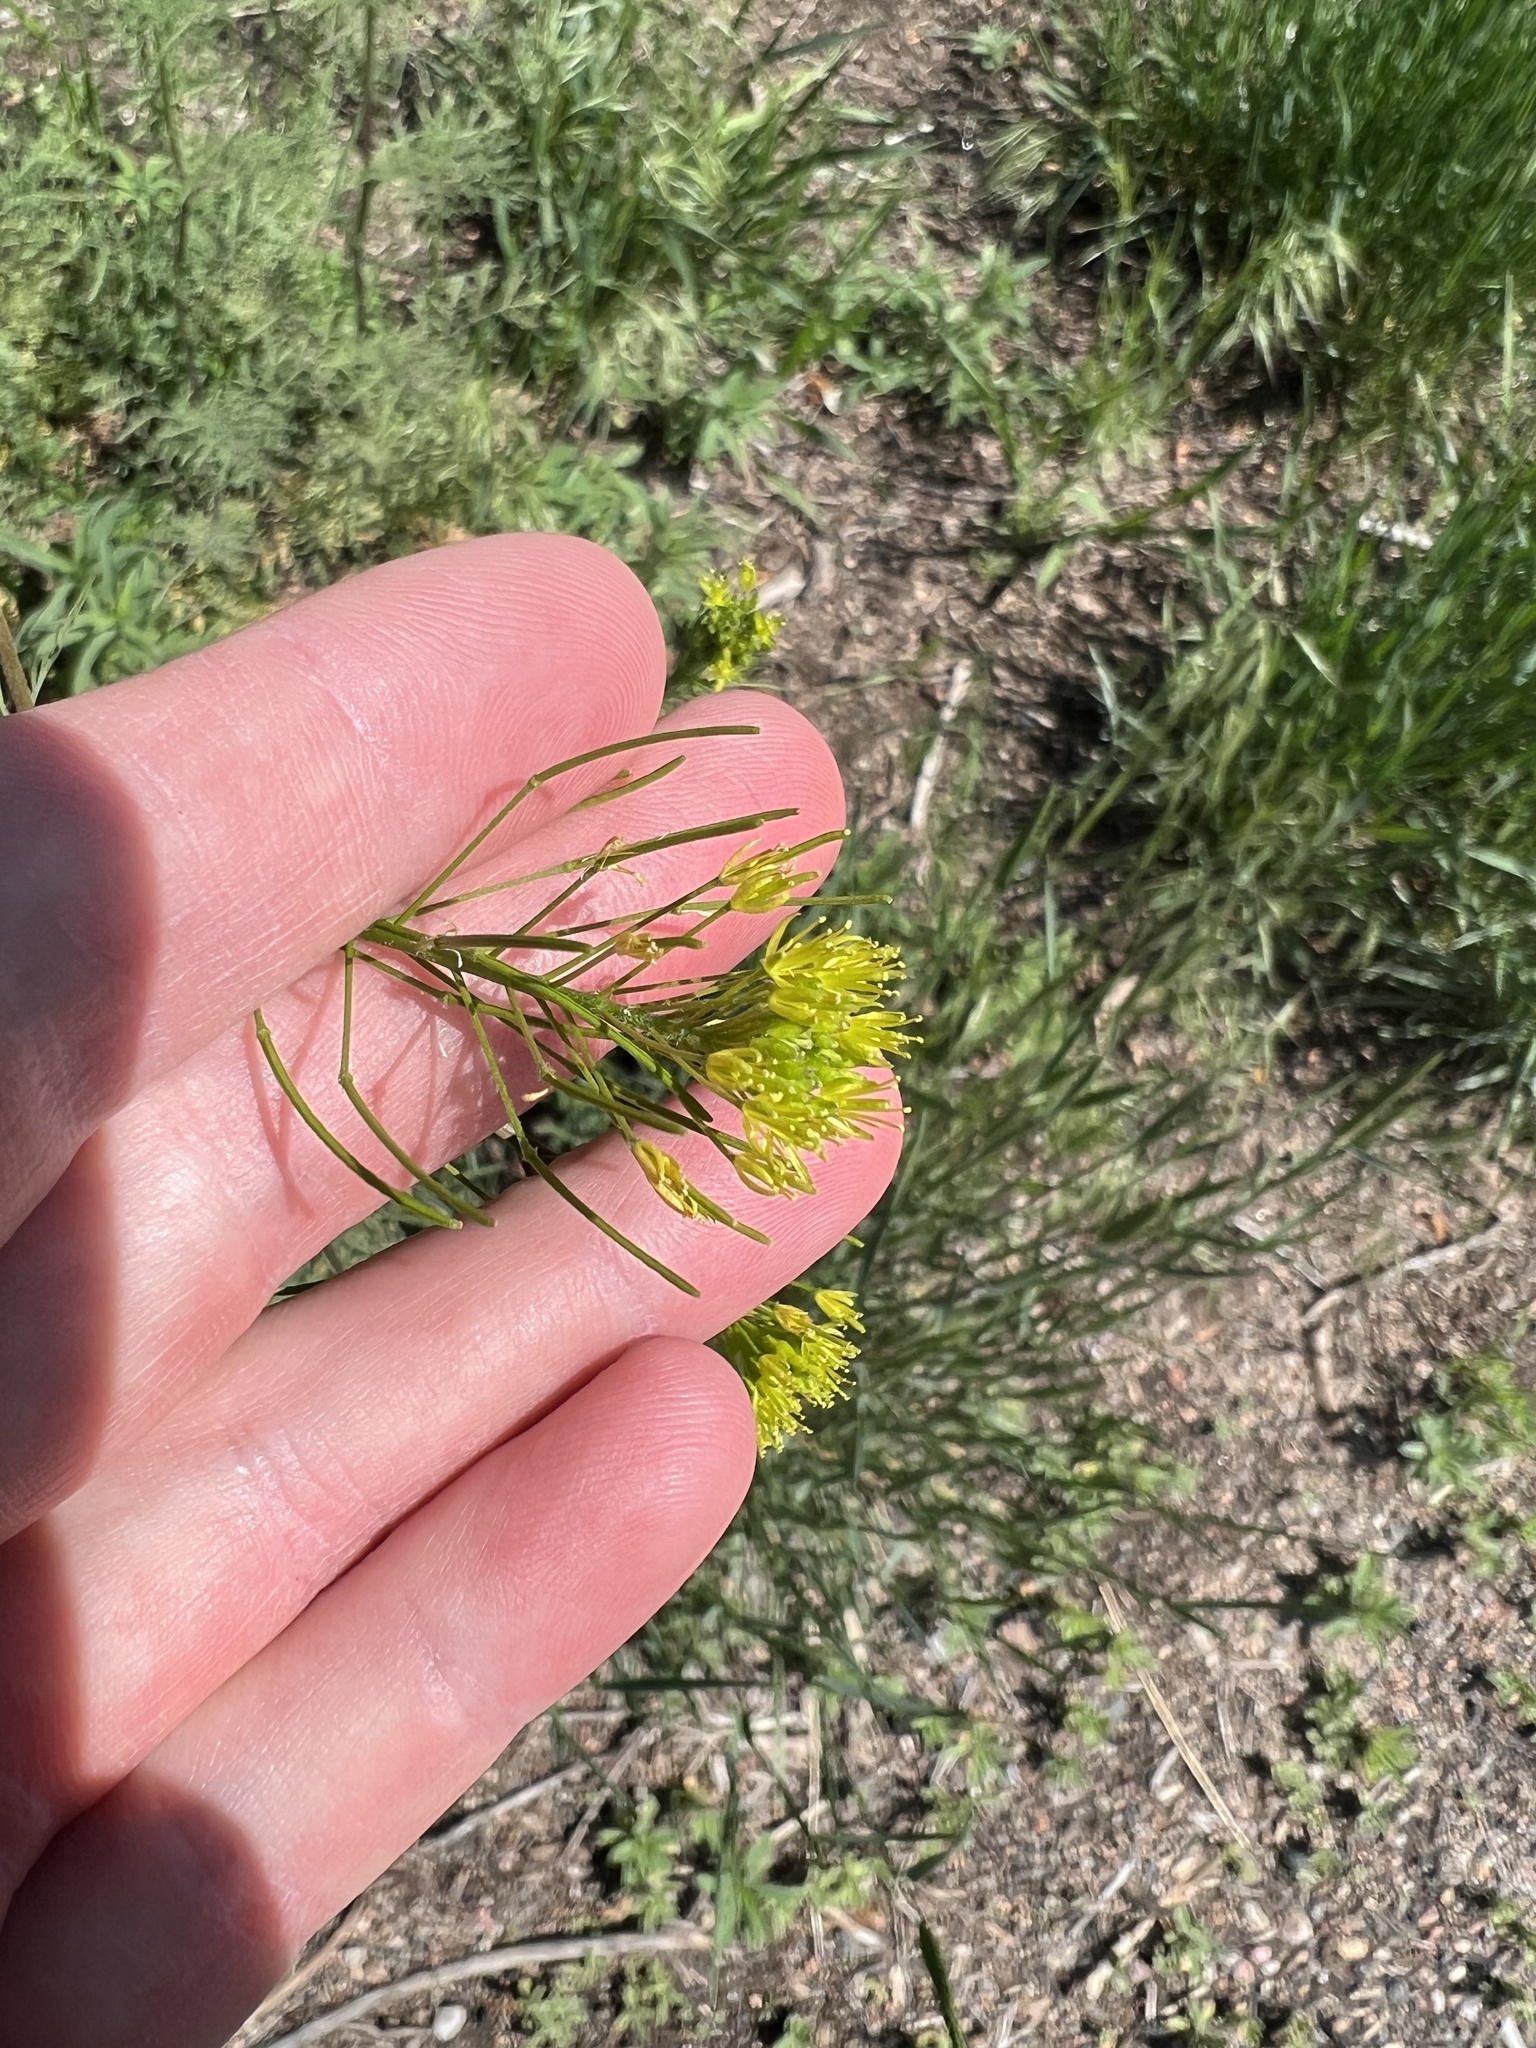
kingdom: Plantae
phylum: Tracheophyta
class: Magnoliopsida
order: Brassicales
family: Brassicaceae
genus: Descurainia
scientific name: Descurainia sophia
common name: Flixweed
